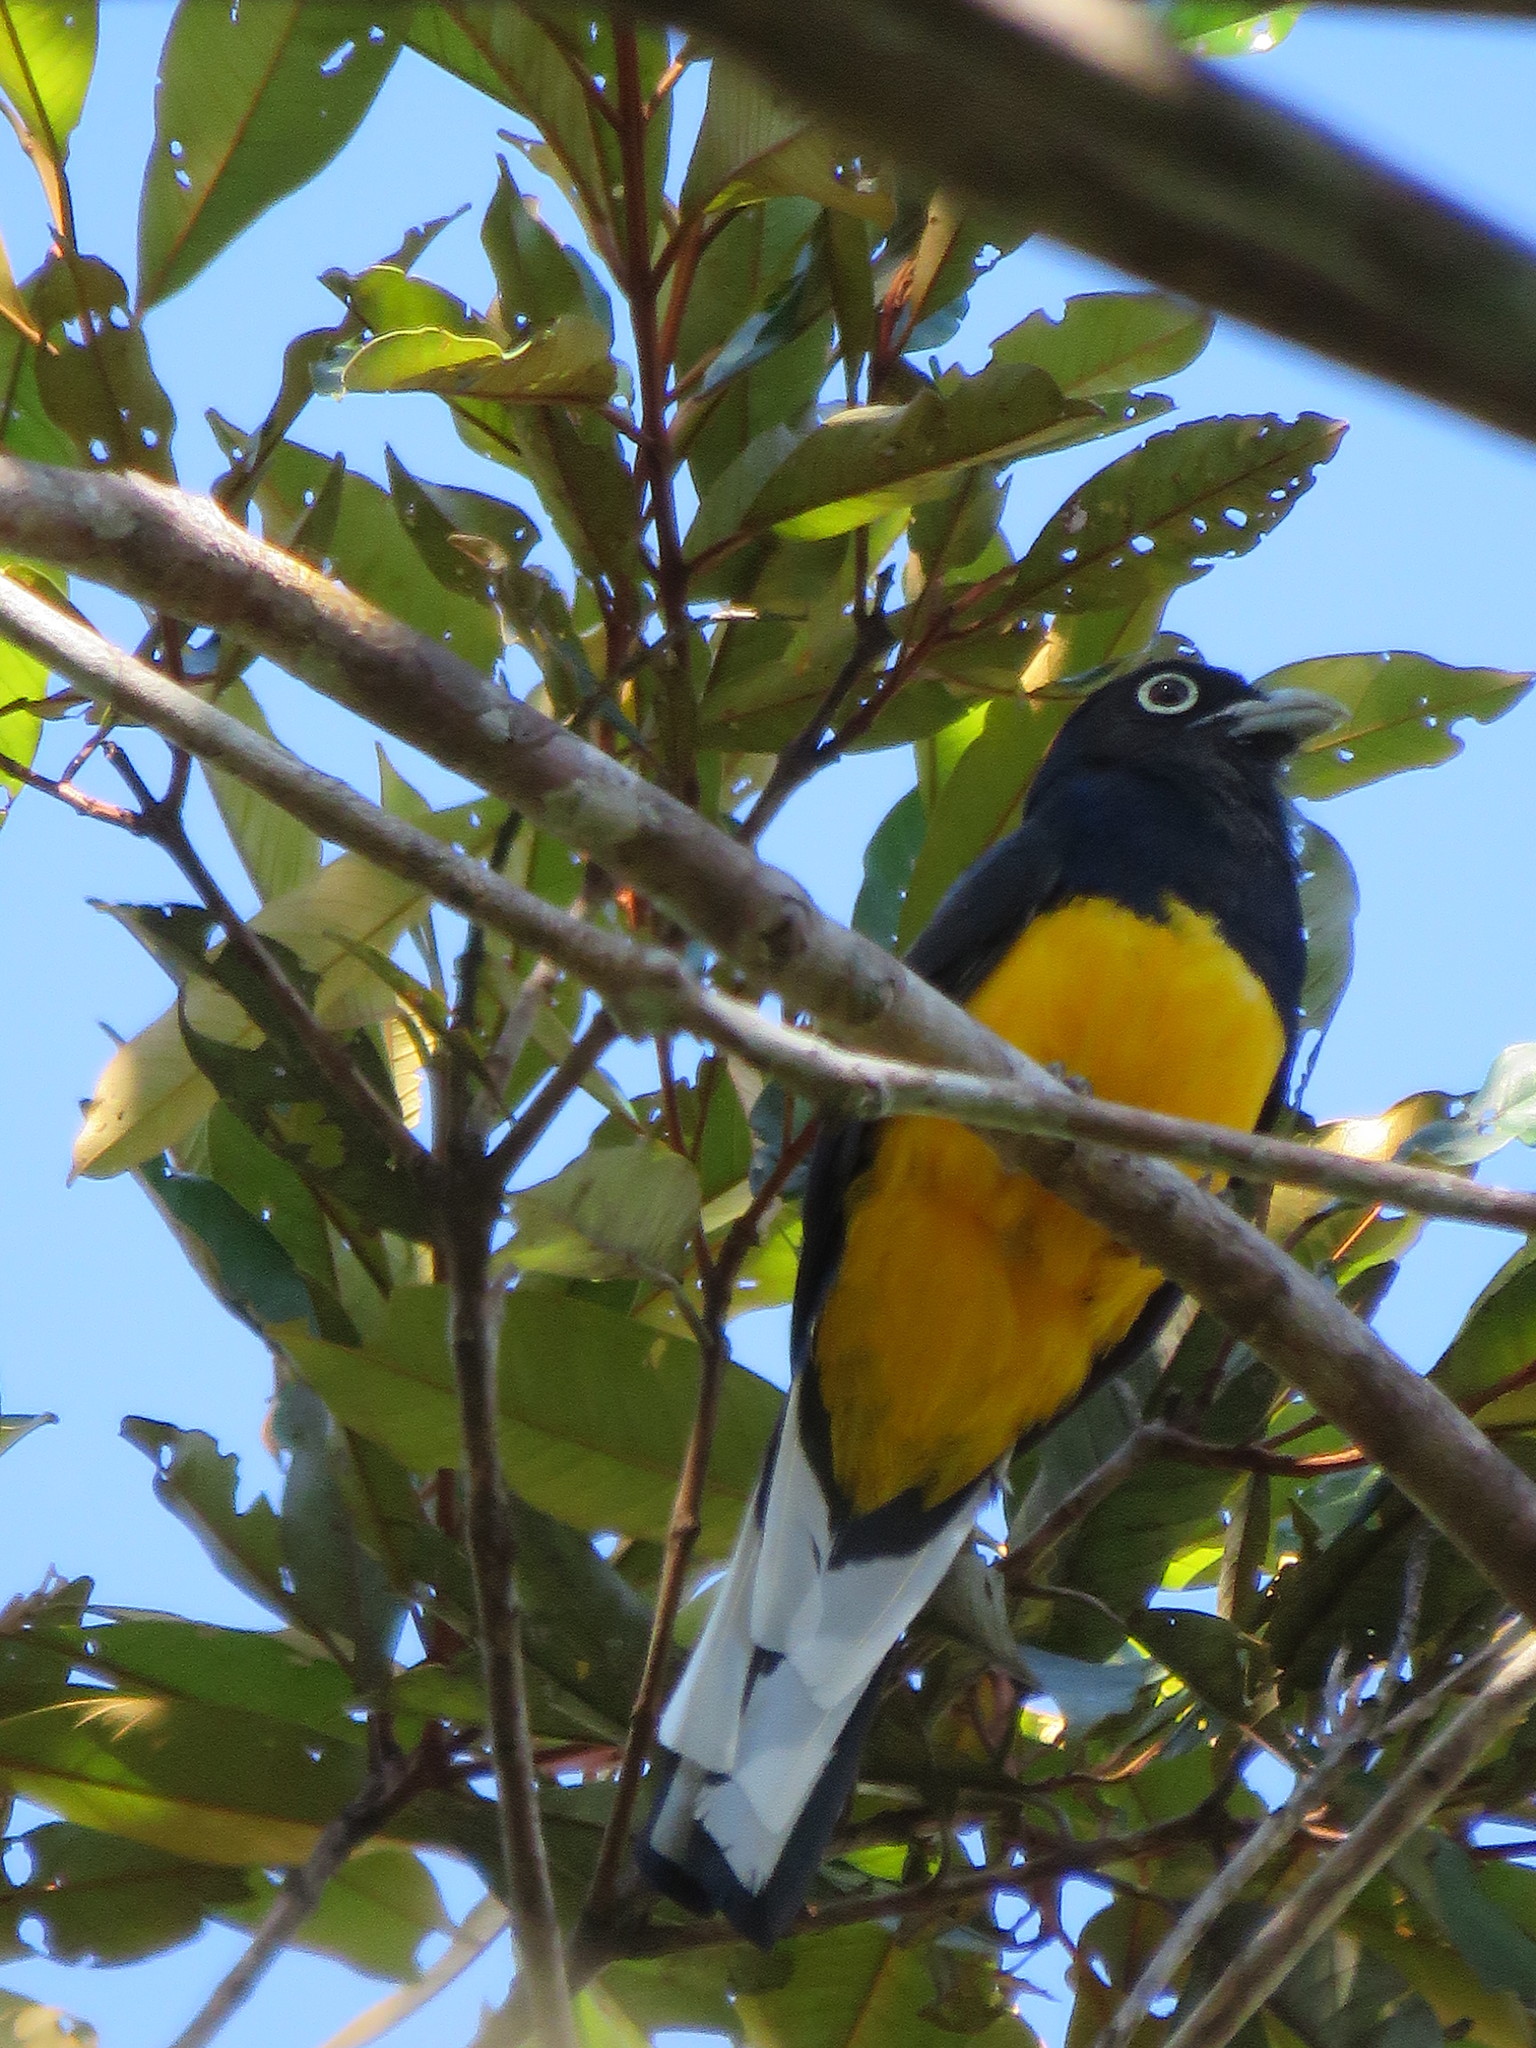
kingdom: Animalia
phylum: Chordata
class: Aves
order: Trogoniformes
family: Trogonidae
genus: Trogon
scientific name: Trogon viridis
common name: Green-backed trogon
